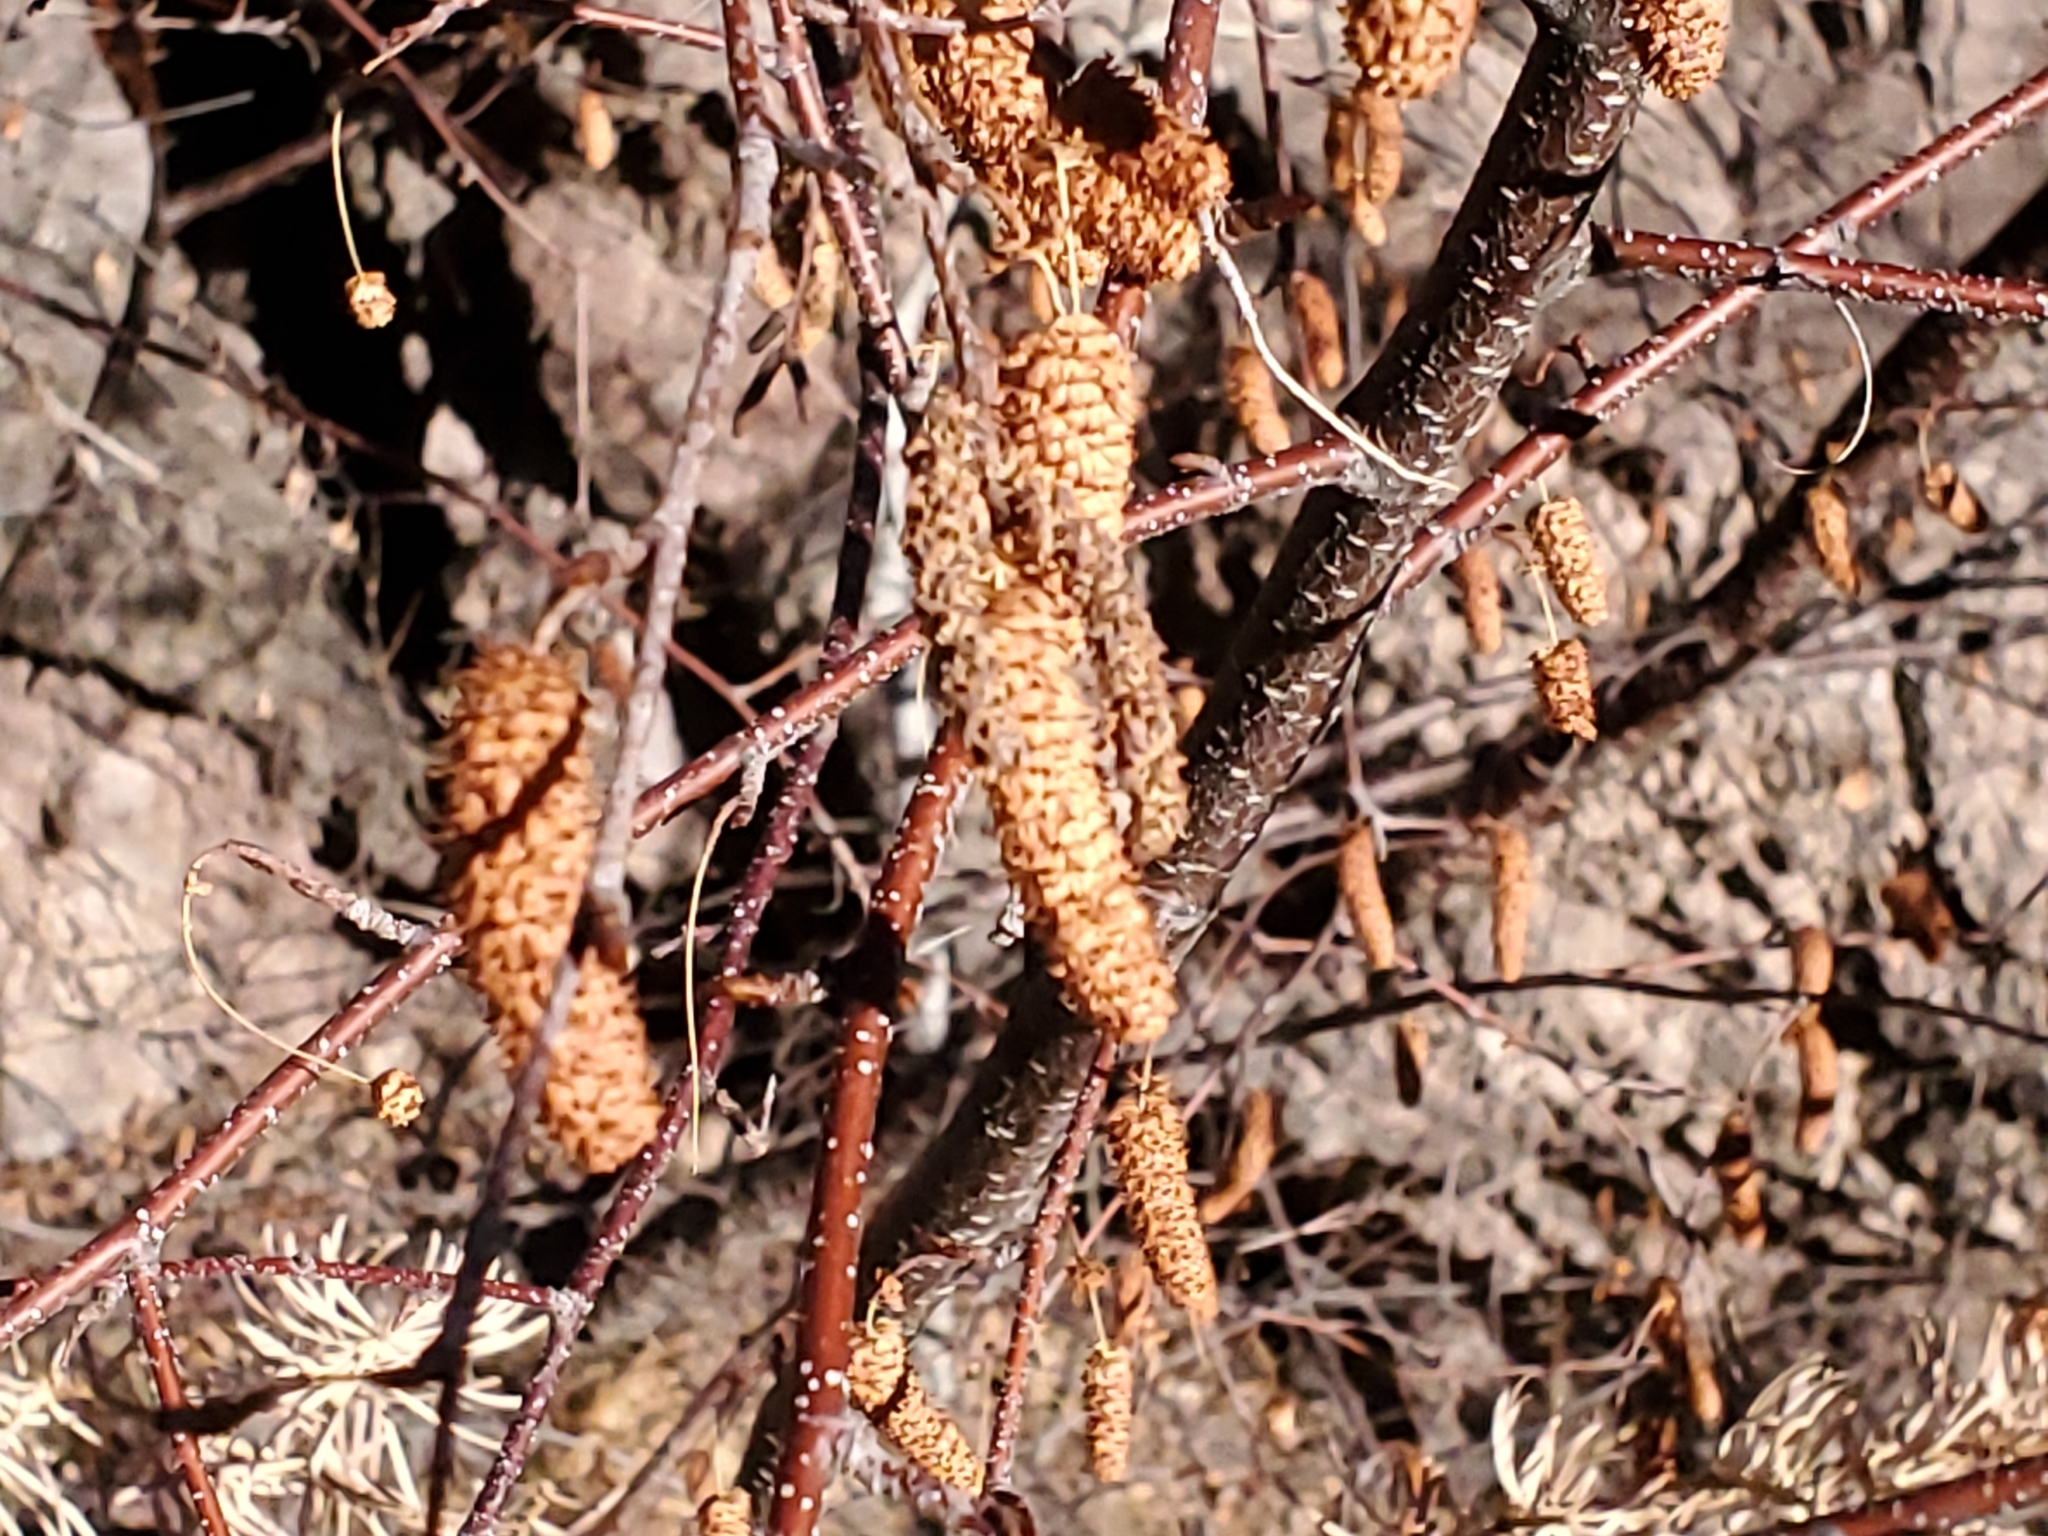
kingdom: Plantae
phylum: Tracheophyta
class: Magnoliopsida
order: Fagales
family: Betulaceae
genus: Betula
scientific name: Betula occidentalis
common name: River birch
